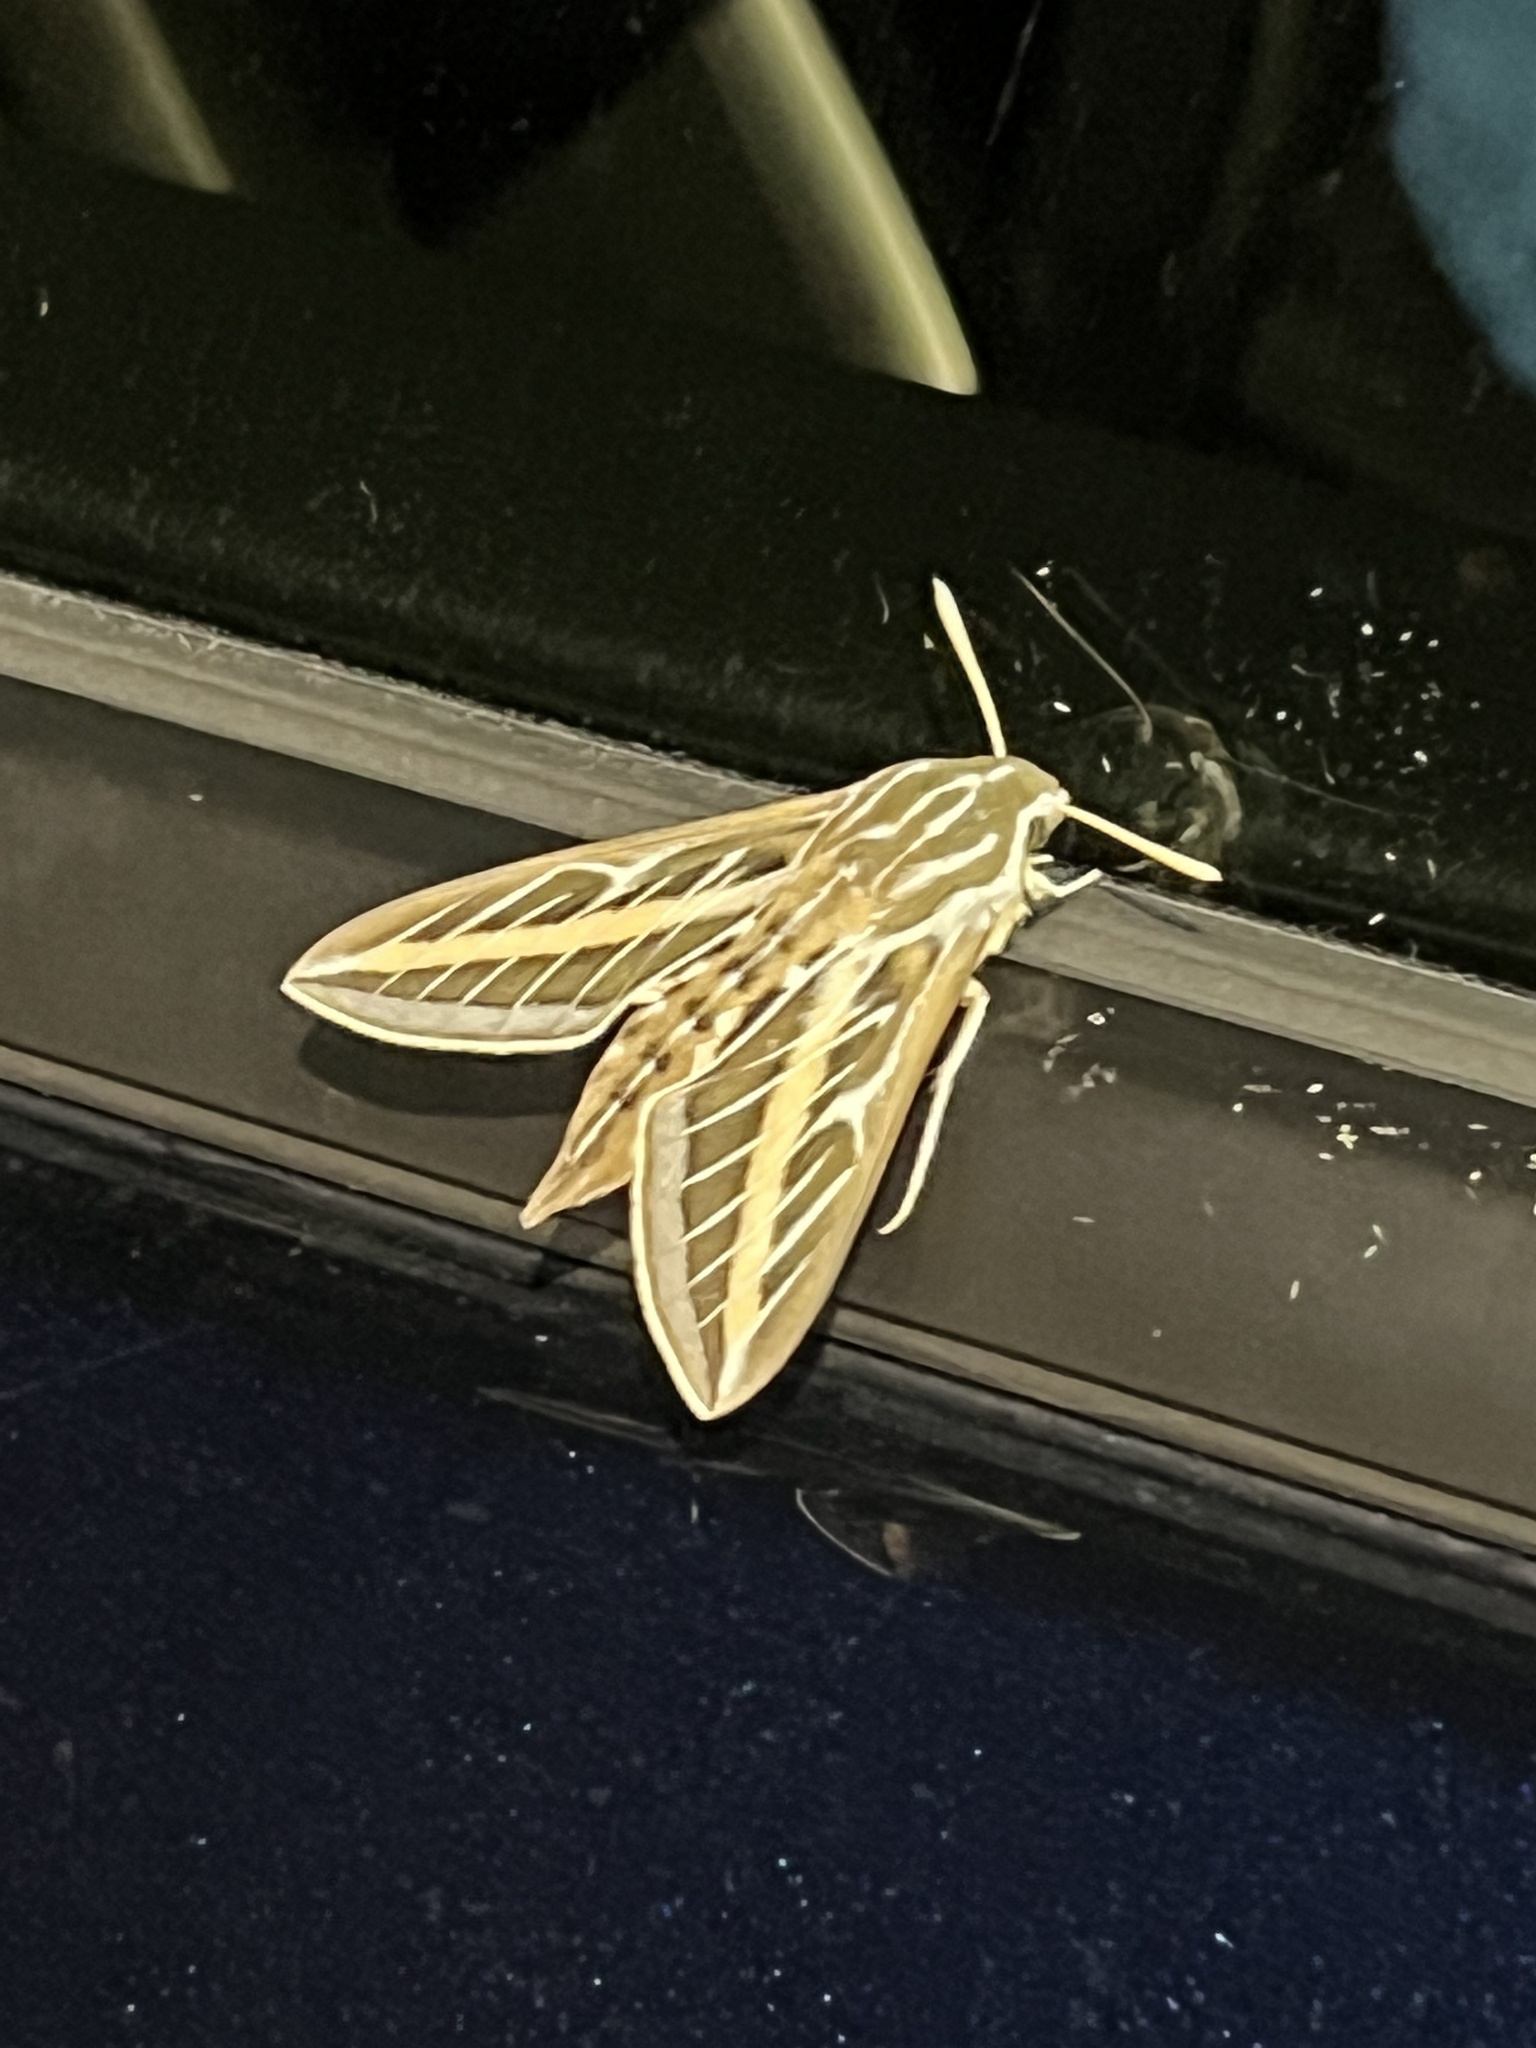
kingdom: Animalia
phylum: Arthropoda
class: Insecta
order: Lepidoptera
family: Sphingidae
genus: Hyles
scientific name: Hyles lineata
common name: White-lined sphinx
